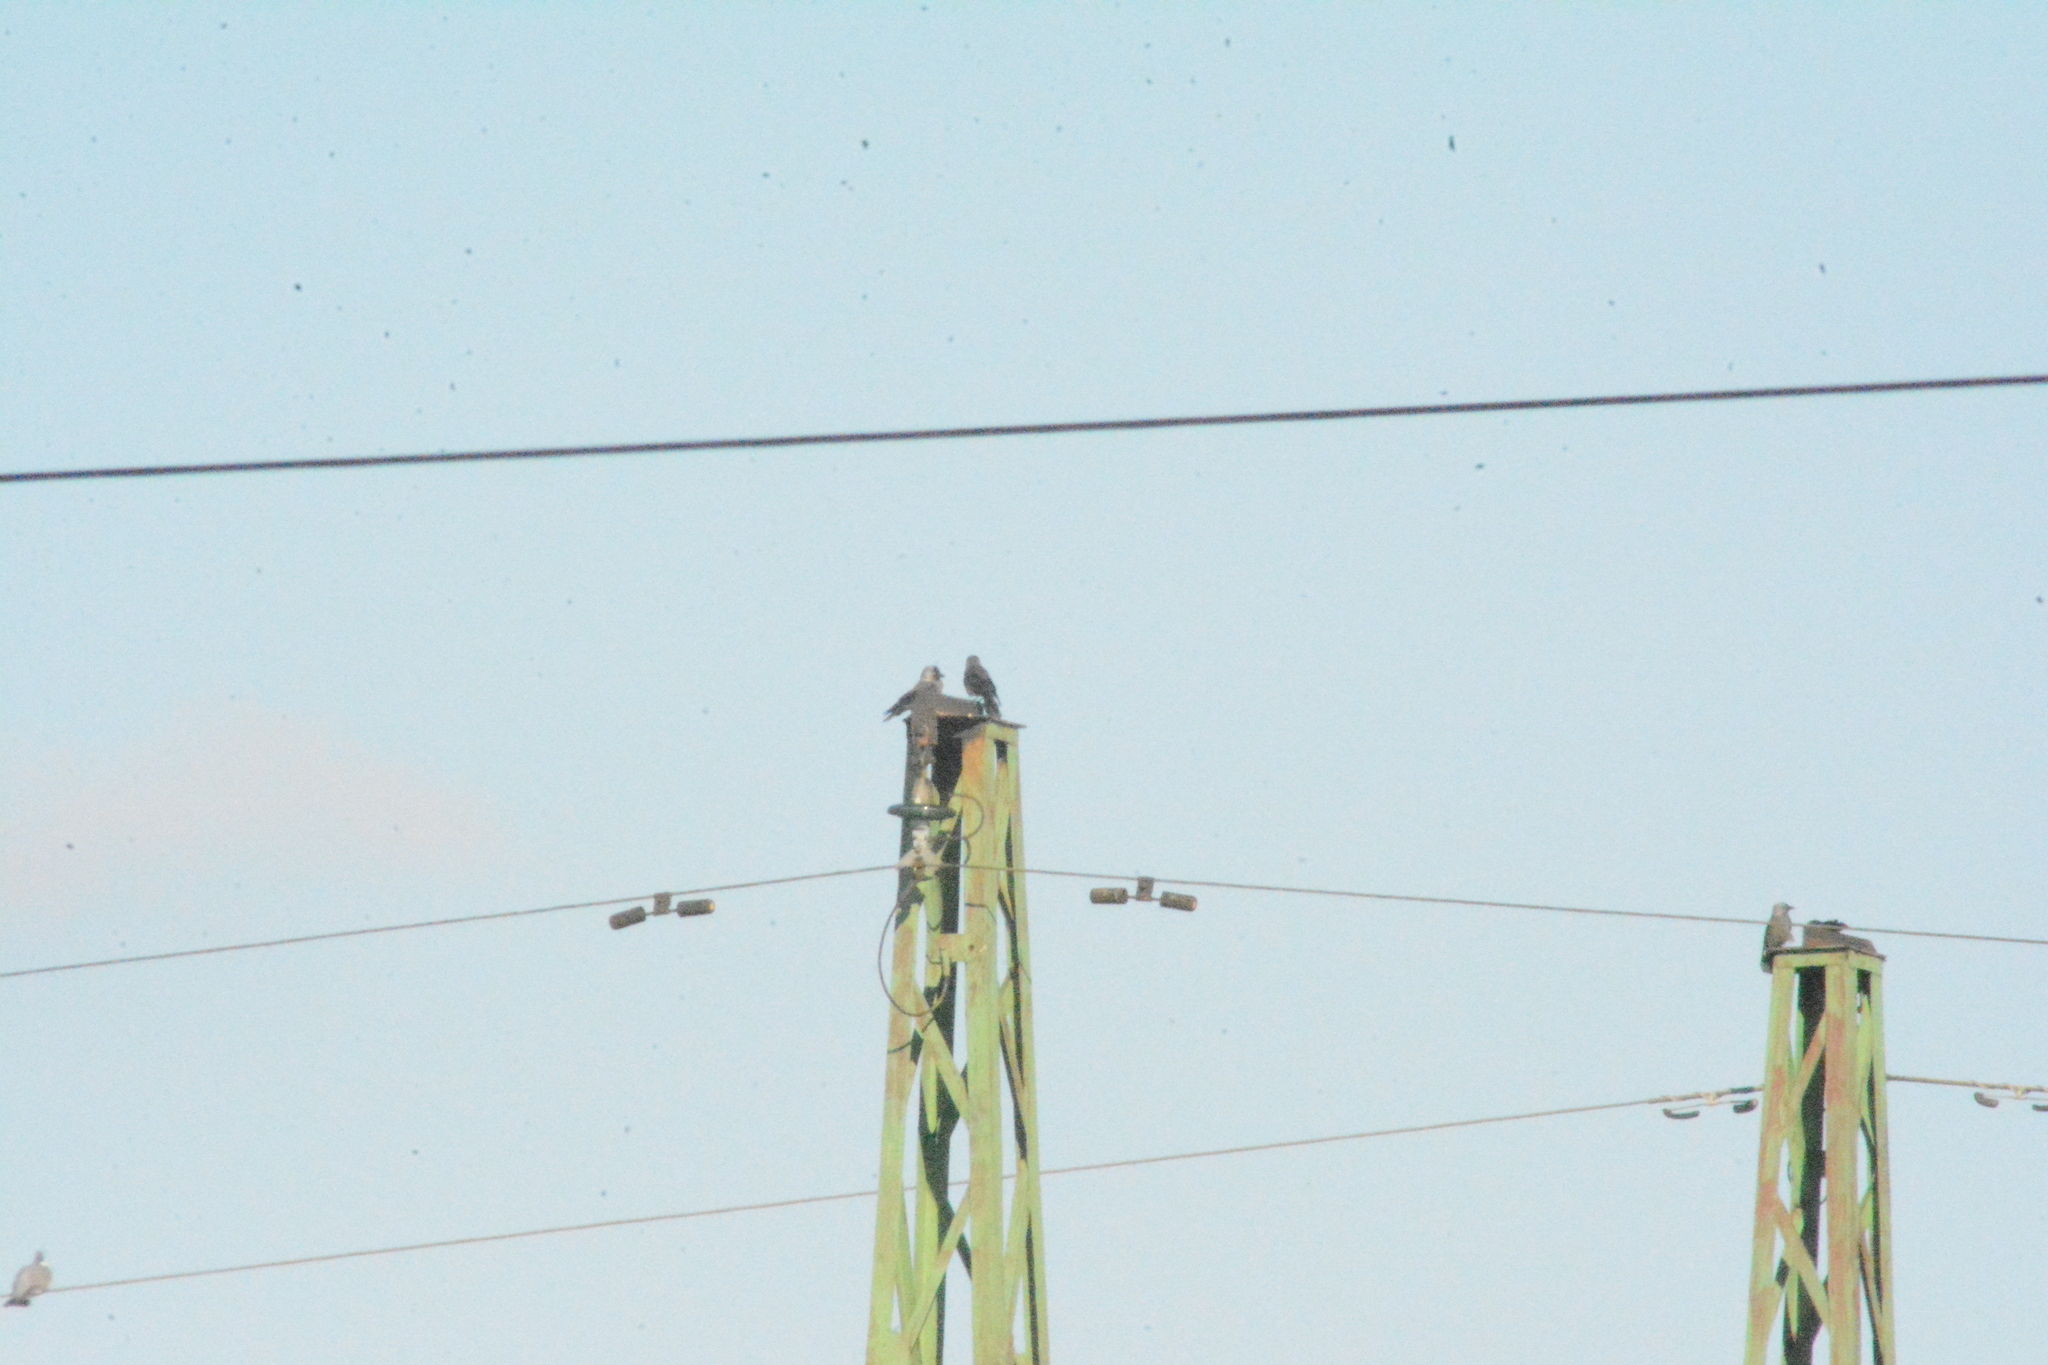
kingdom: Animalia
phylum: Chordata
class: Aves
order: Passeriformes
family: Corvidae
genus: Coloeus
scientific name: Coloeus monedula
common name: Western jackdaw
